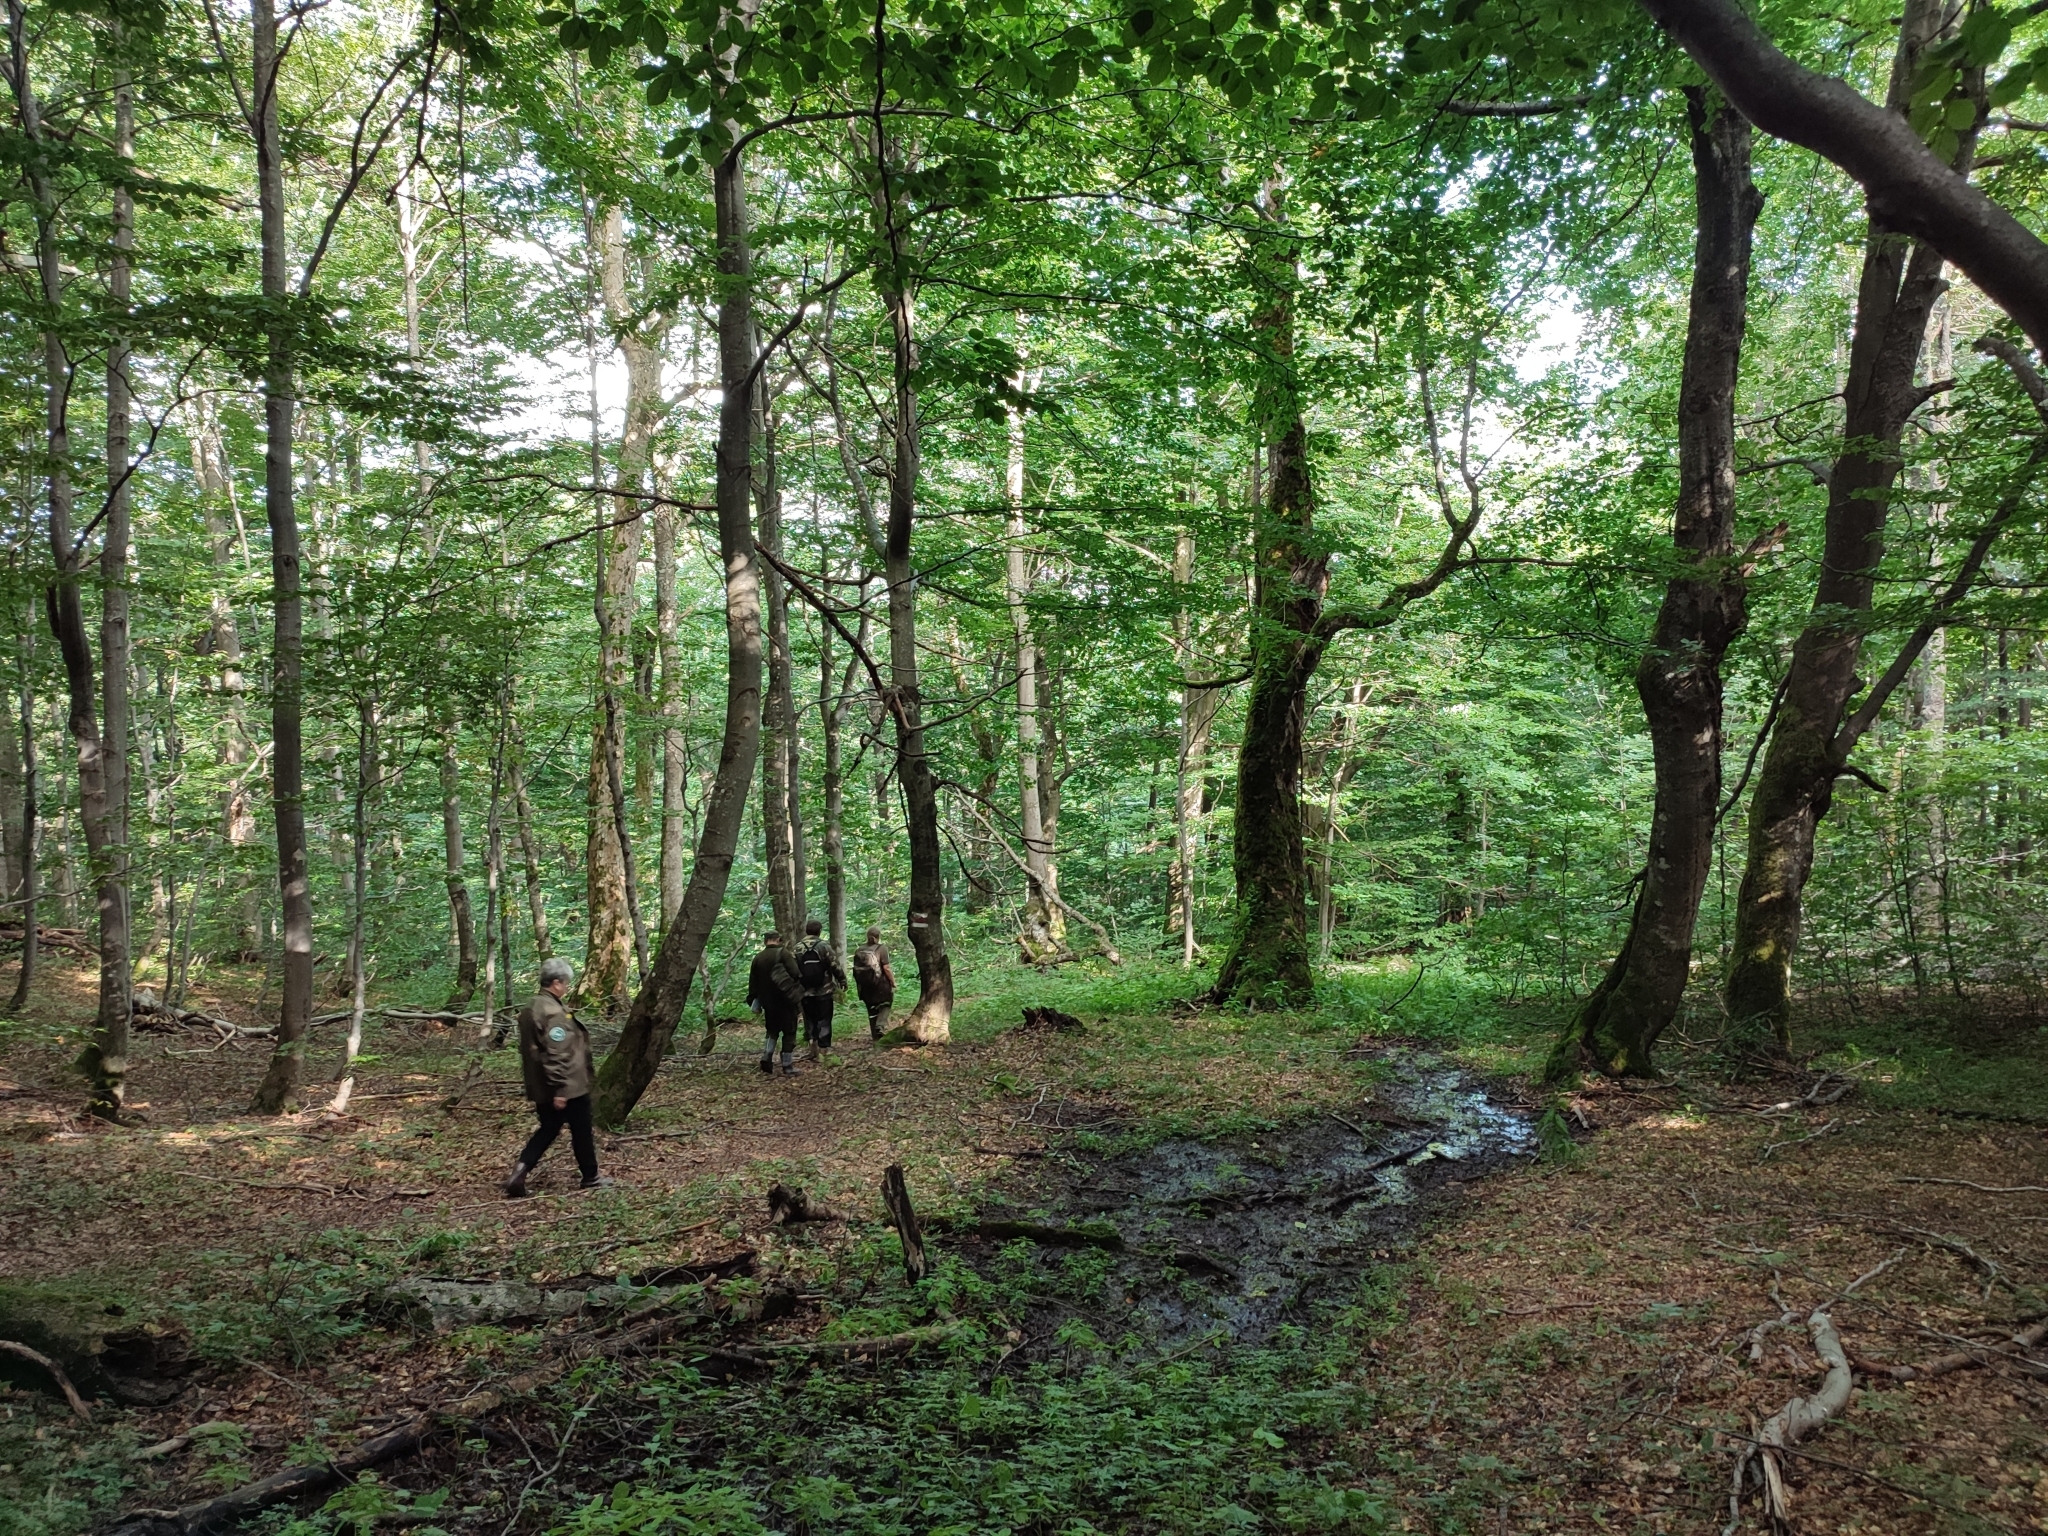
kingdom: Plantae
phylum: Tracheophyta
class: Magnoliopsida
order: Fagales
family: Fagaceae
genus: Fagus
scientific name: Fagus sylvatica
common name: Beech
